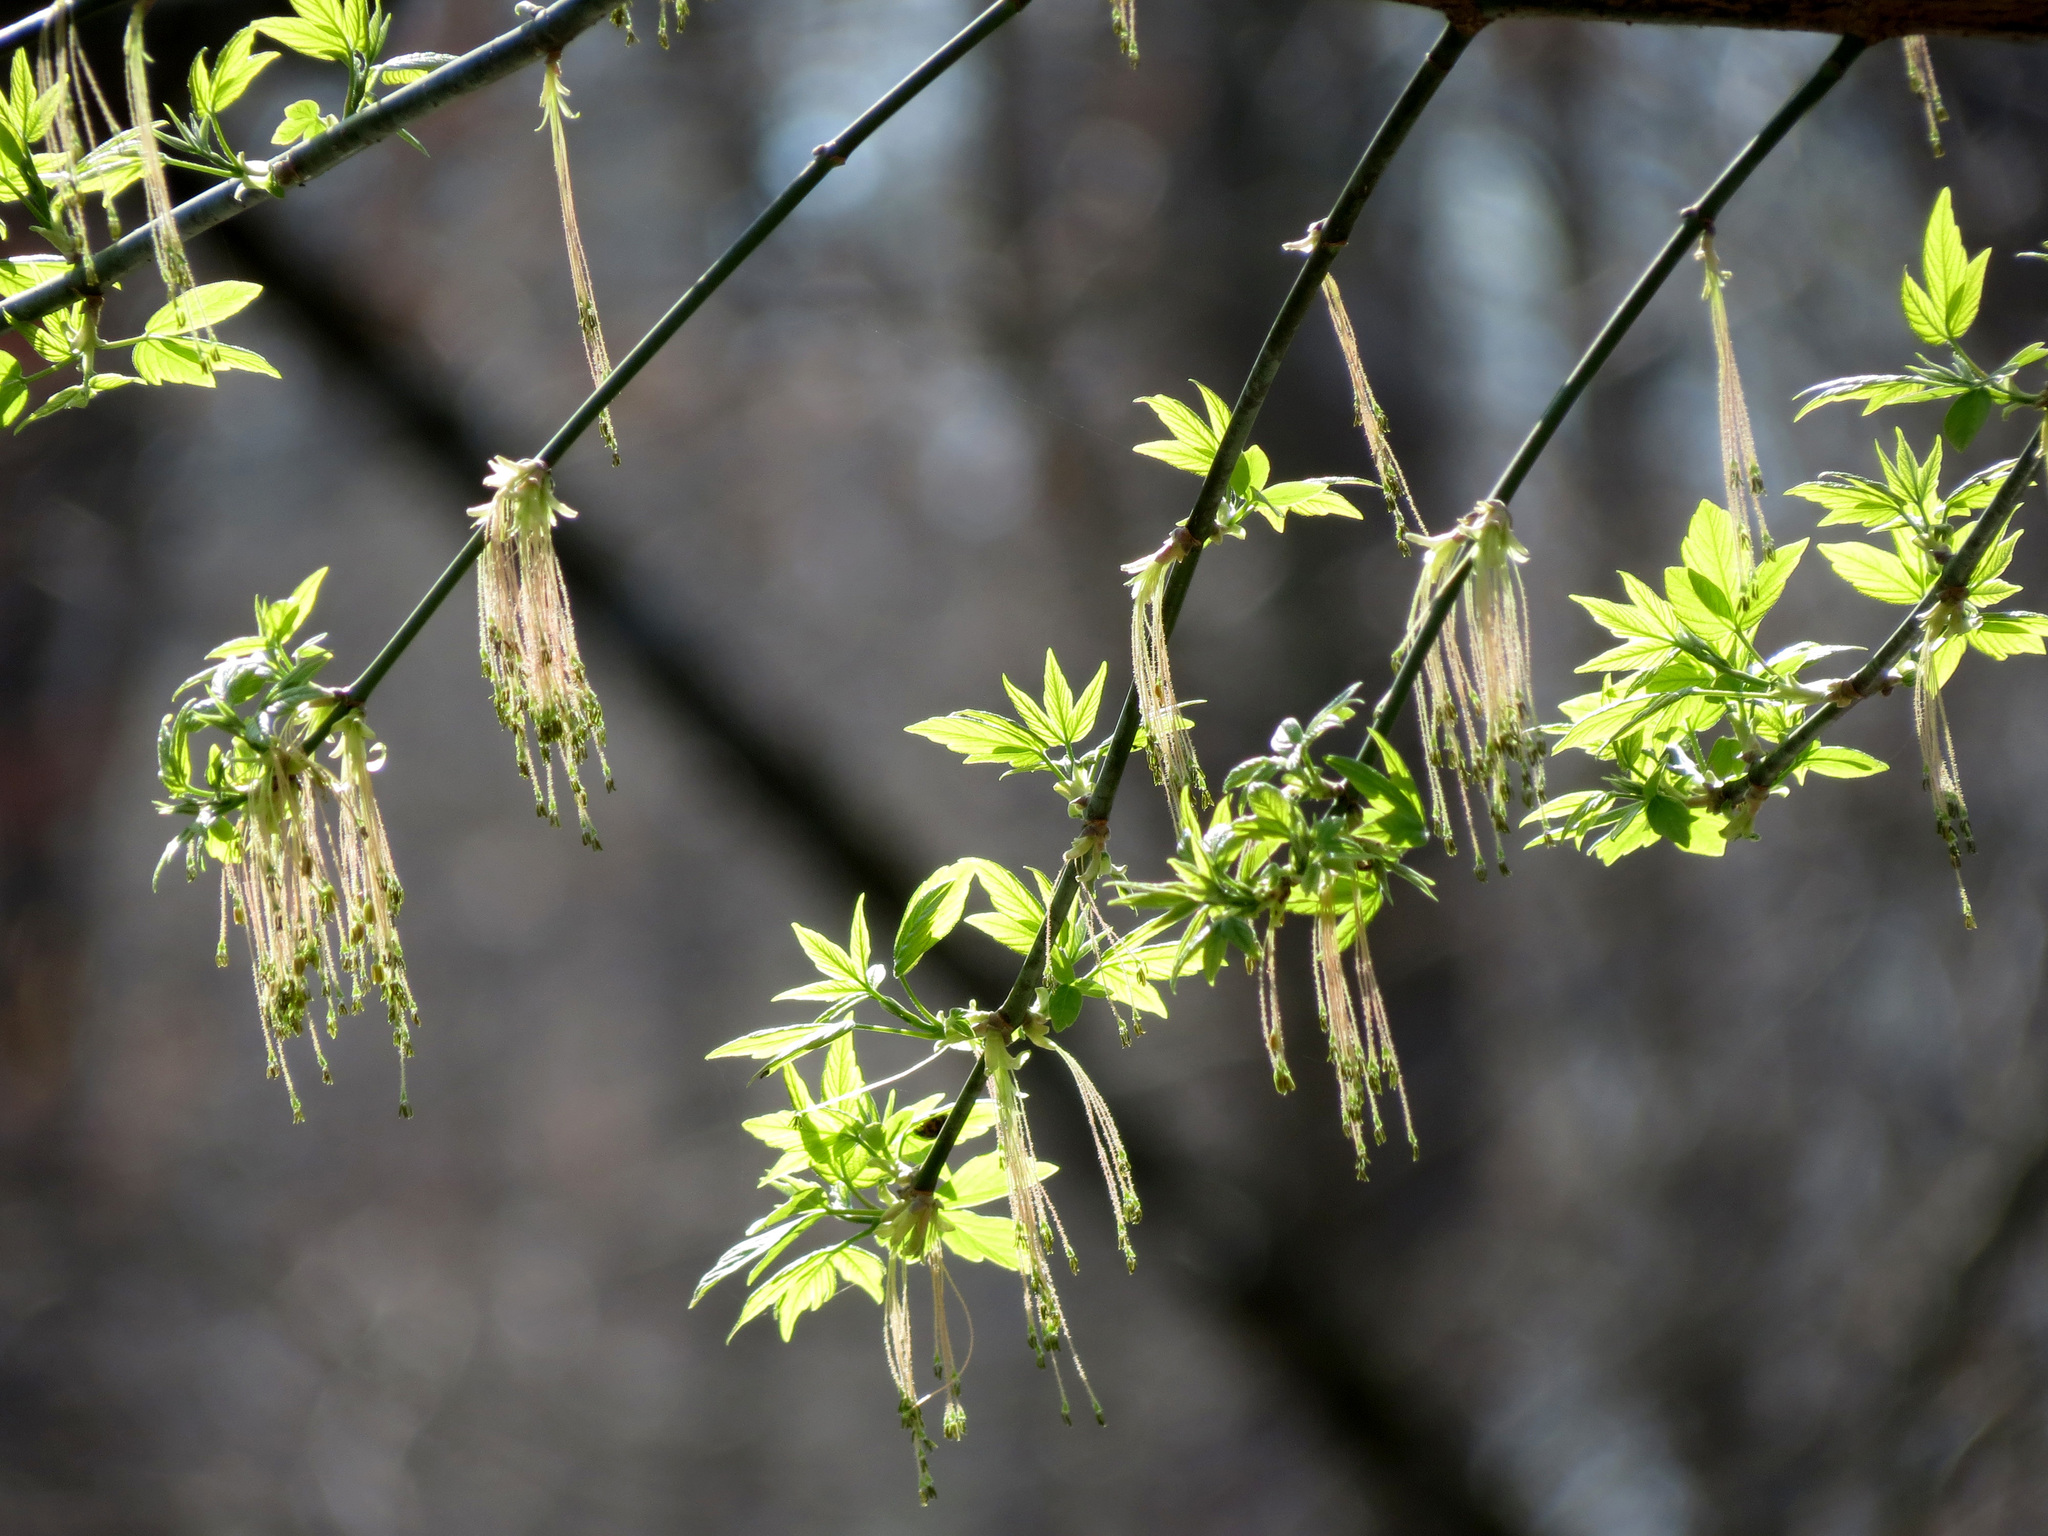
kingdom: Plantae
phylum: Tracheophyta
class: Magnoliopsida
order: Sapindales
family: Sapindaceae
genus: Acer
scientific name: Acer negundo
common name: Ashleaf maple
